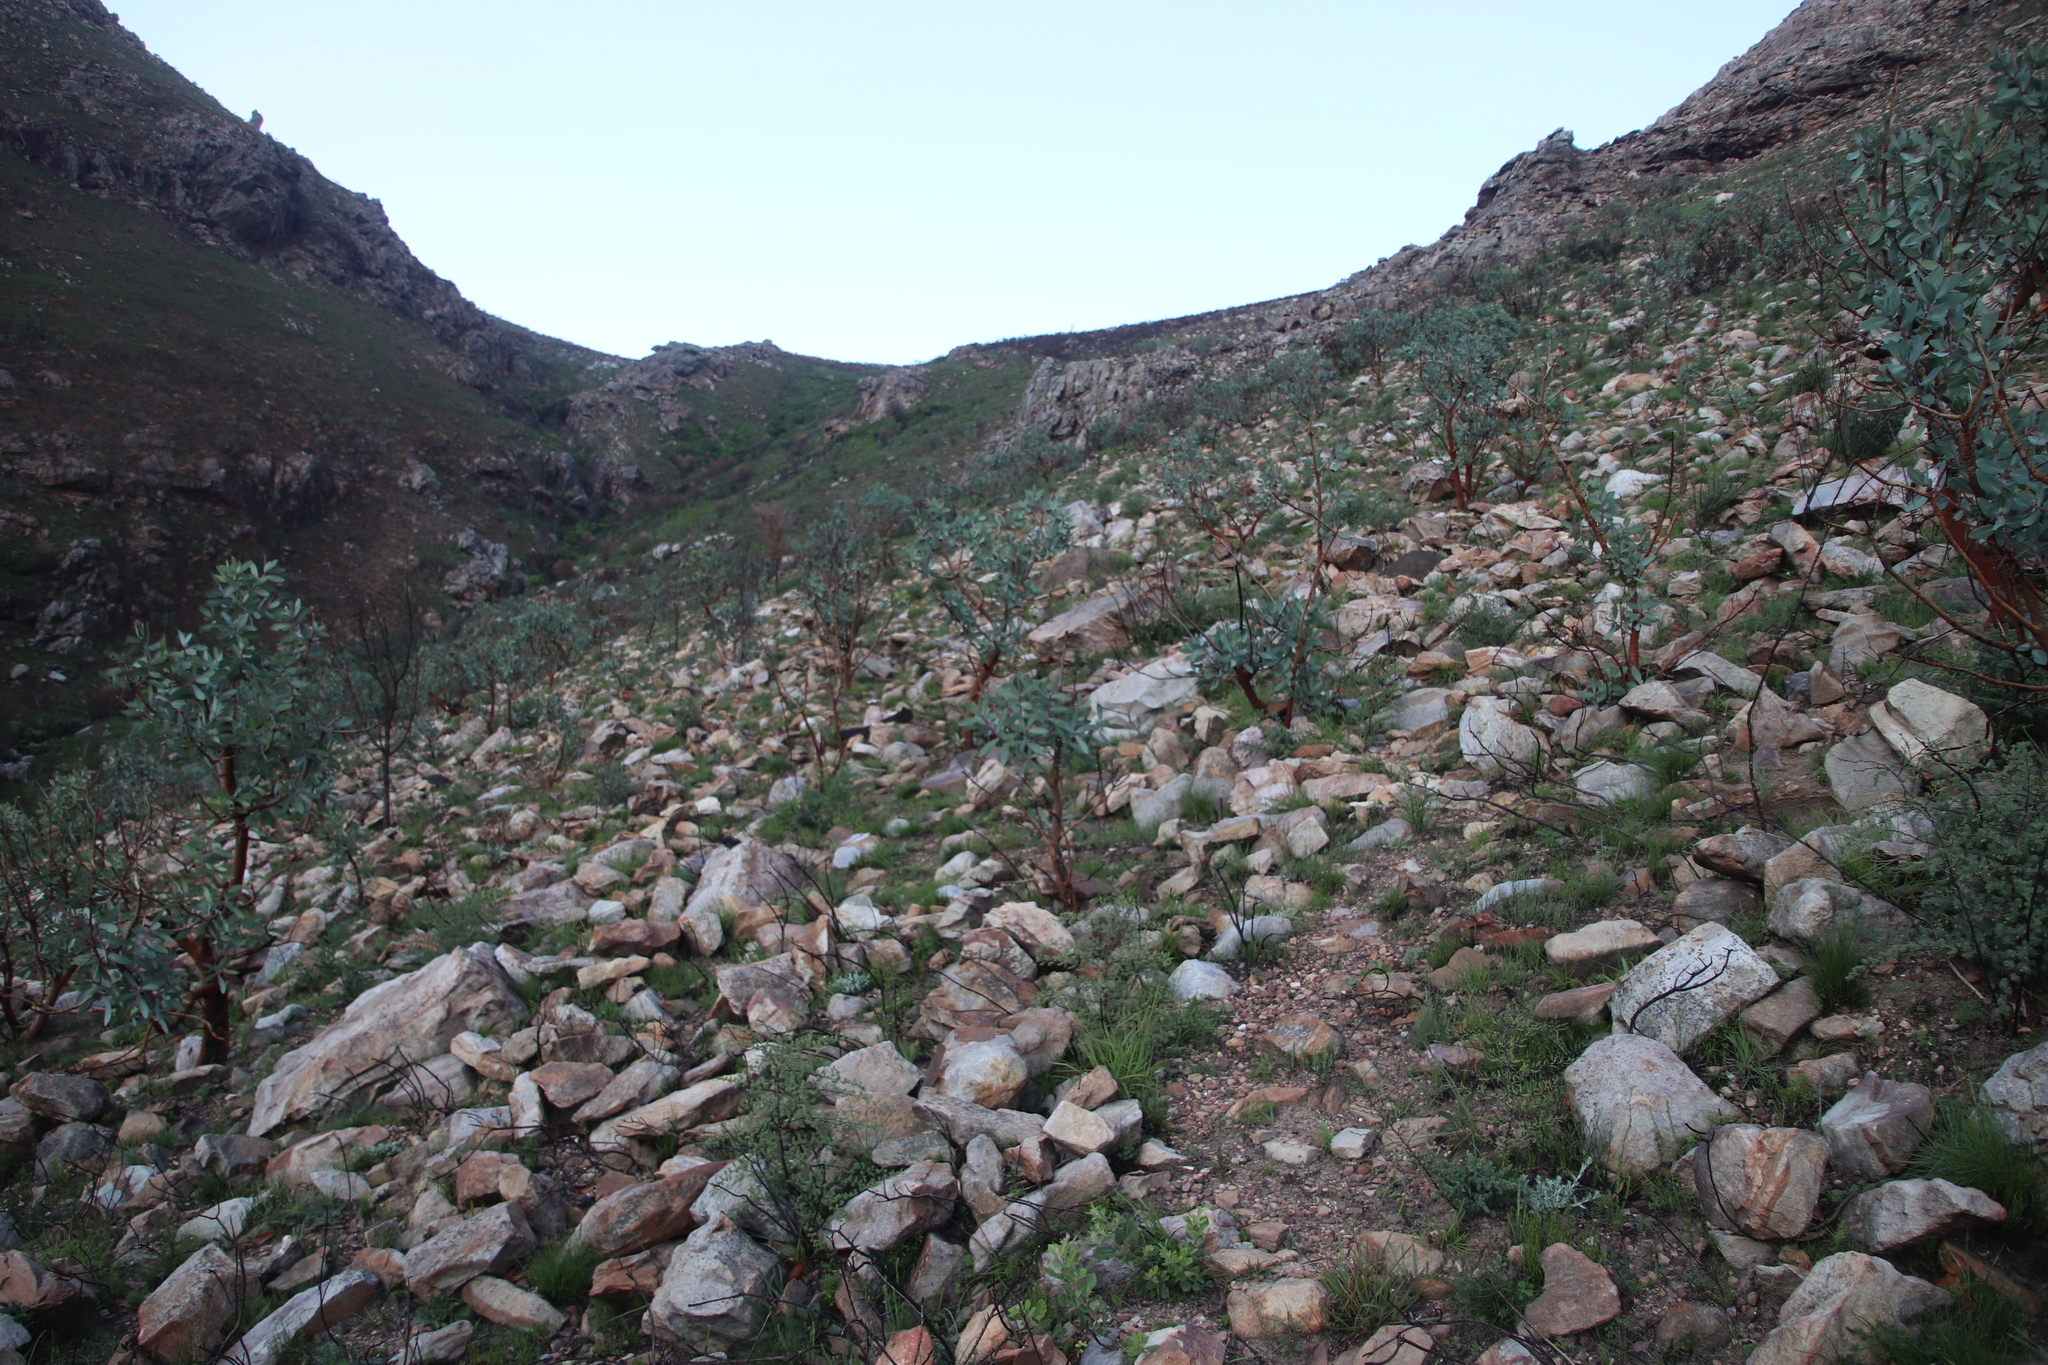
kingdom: Plantae
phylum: Tracheophyta
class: Magnoliopsida
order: Proteales
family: Proteaceae
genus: Protea
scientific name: Protea nitida
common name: Tree protea
